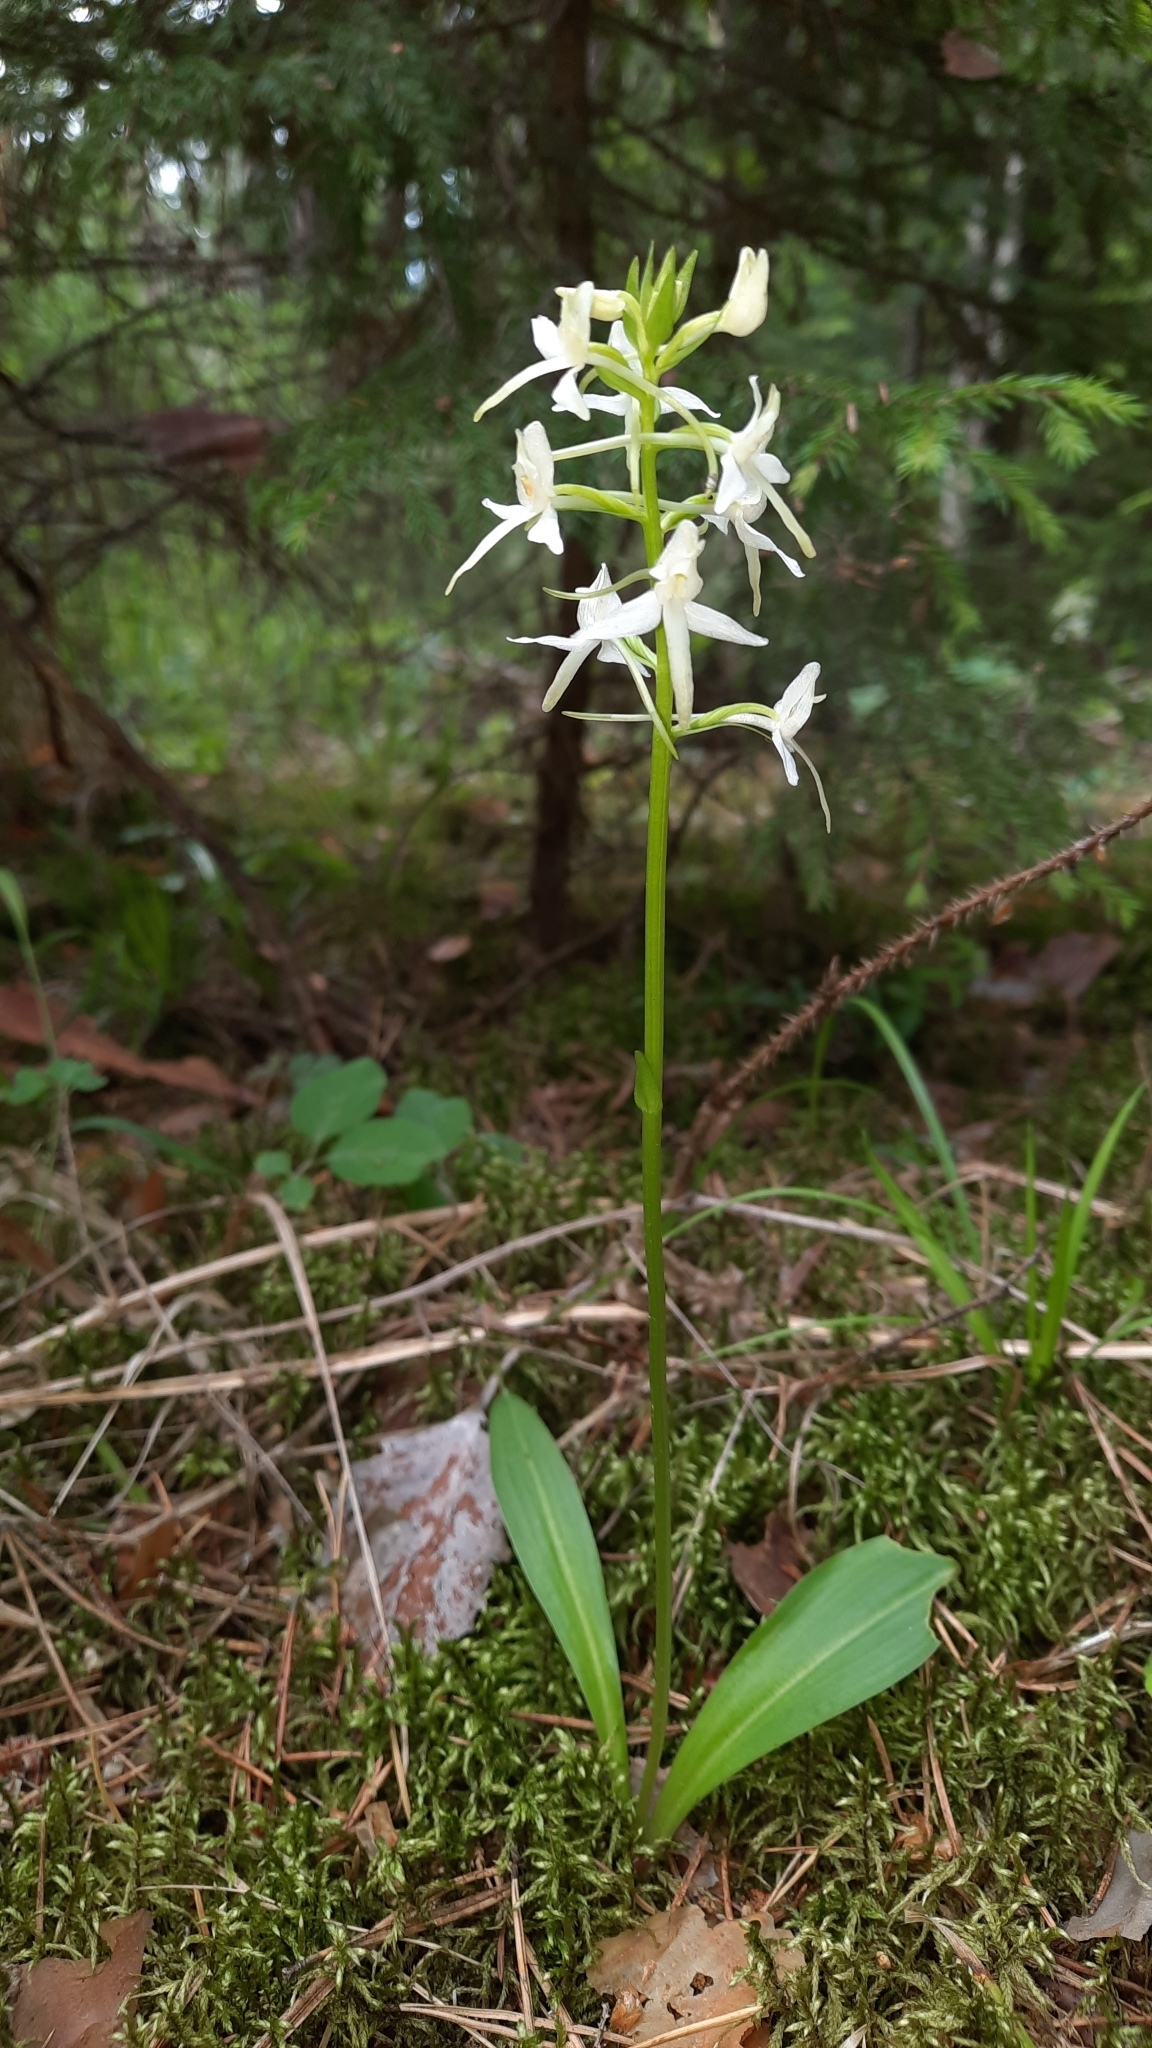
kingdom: Plantae
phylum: Tracheophyta
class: Liliopsida
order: Asparagales
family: Orchidaceae
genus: Platanthera
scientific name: Platanthera bifolia
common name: Lesser butterfly-orchid
